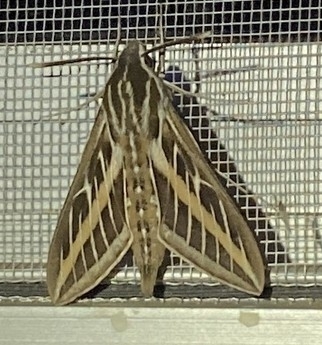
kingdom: Animalia
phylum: Arthropoda
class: Insecta
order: Lepidoptera
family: Sphingidae
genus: Hyles
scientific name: Hyles lineata
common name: White-lined sphinx
